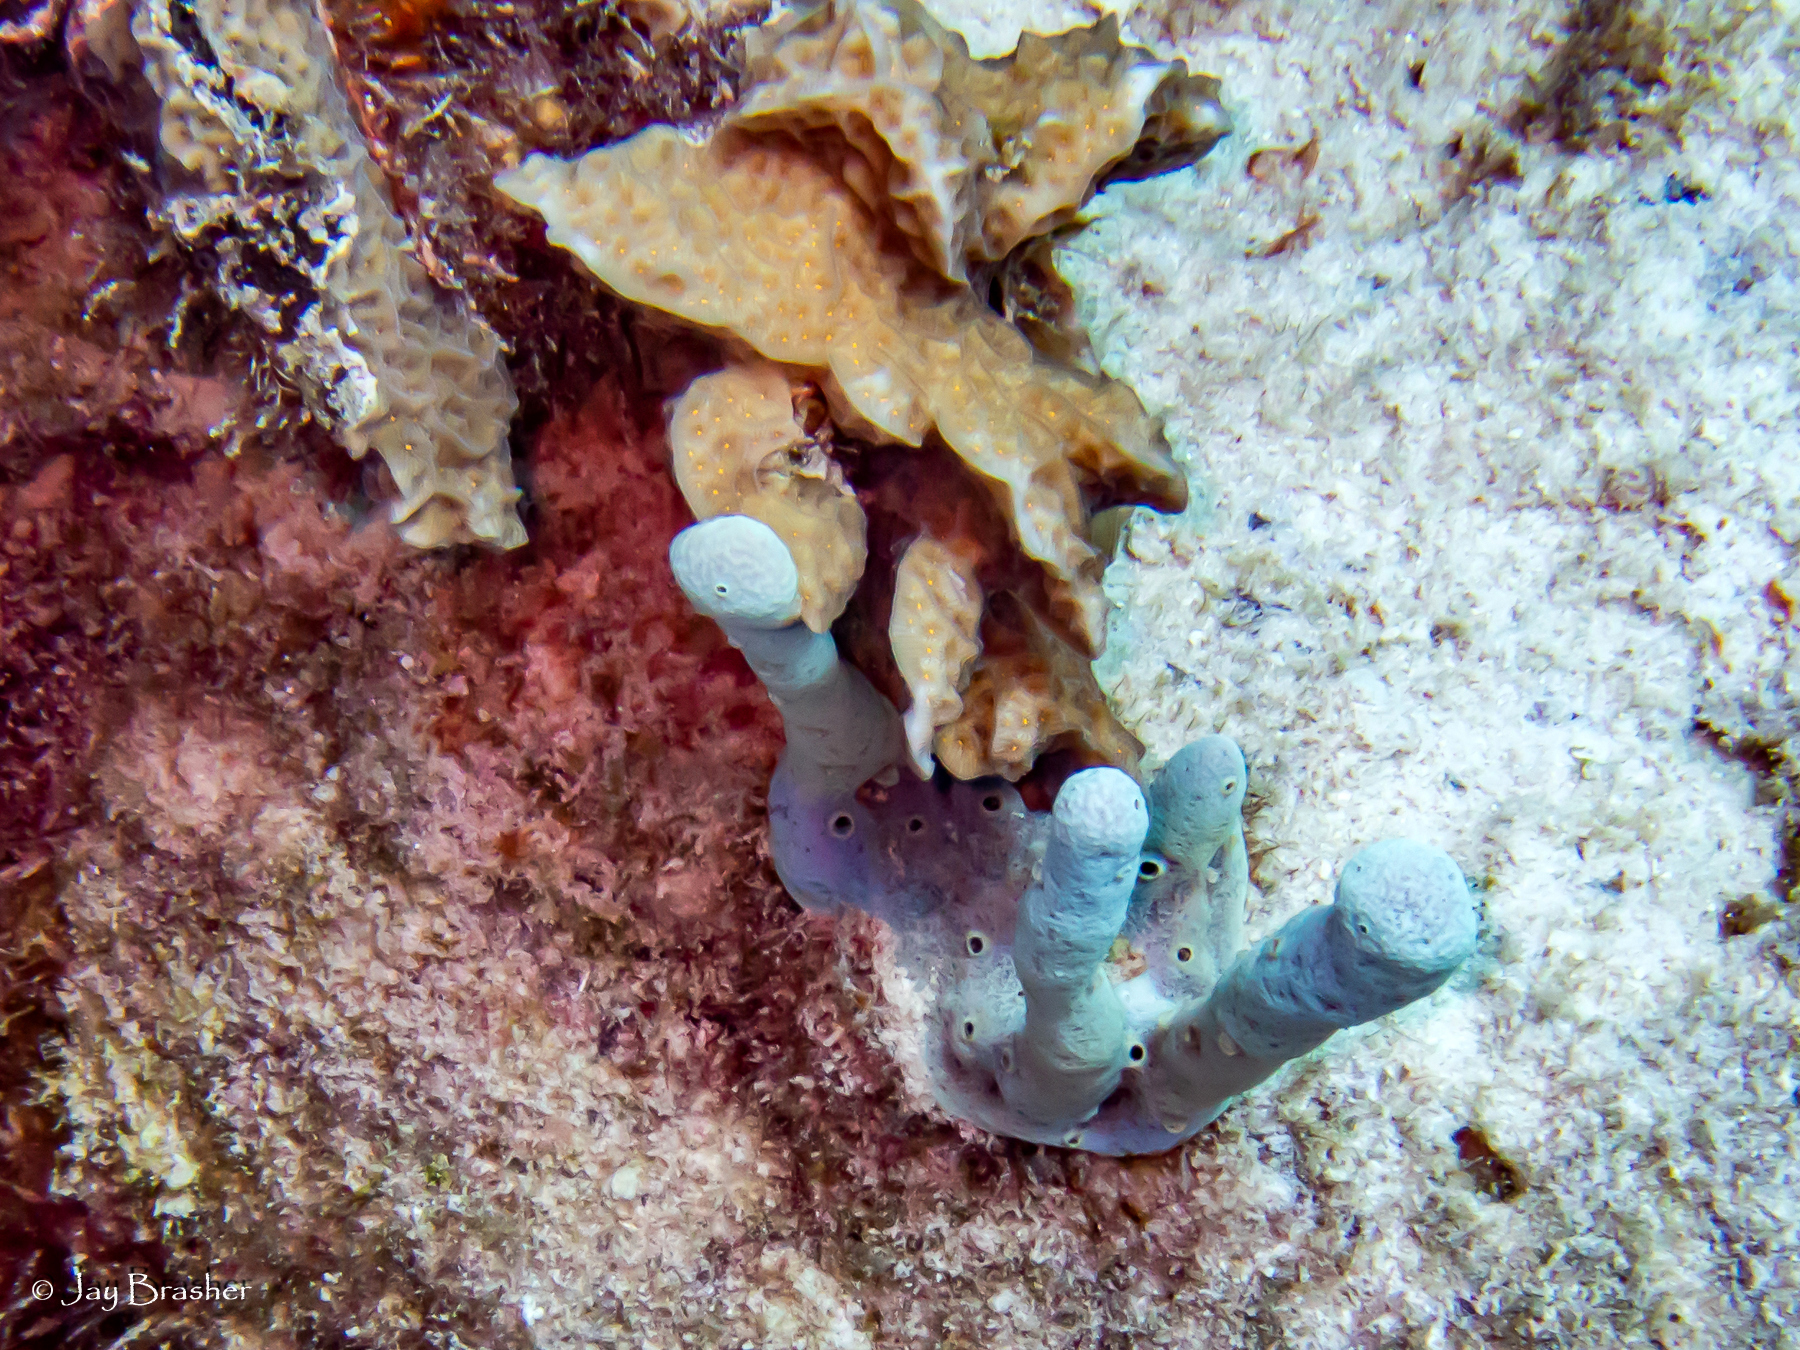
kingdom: Animalia
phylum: Porifera
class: Demospongiae
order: Verongiida
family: Aplysinidae
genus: Aplysina
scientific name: Aplysina cauliformis
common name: Branching candle sponge
